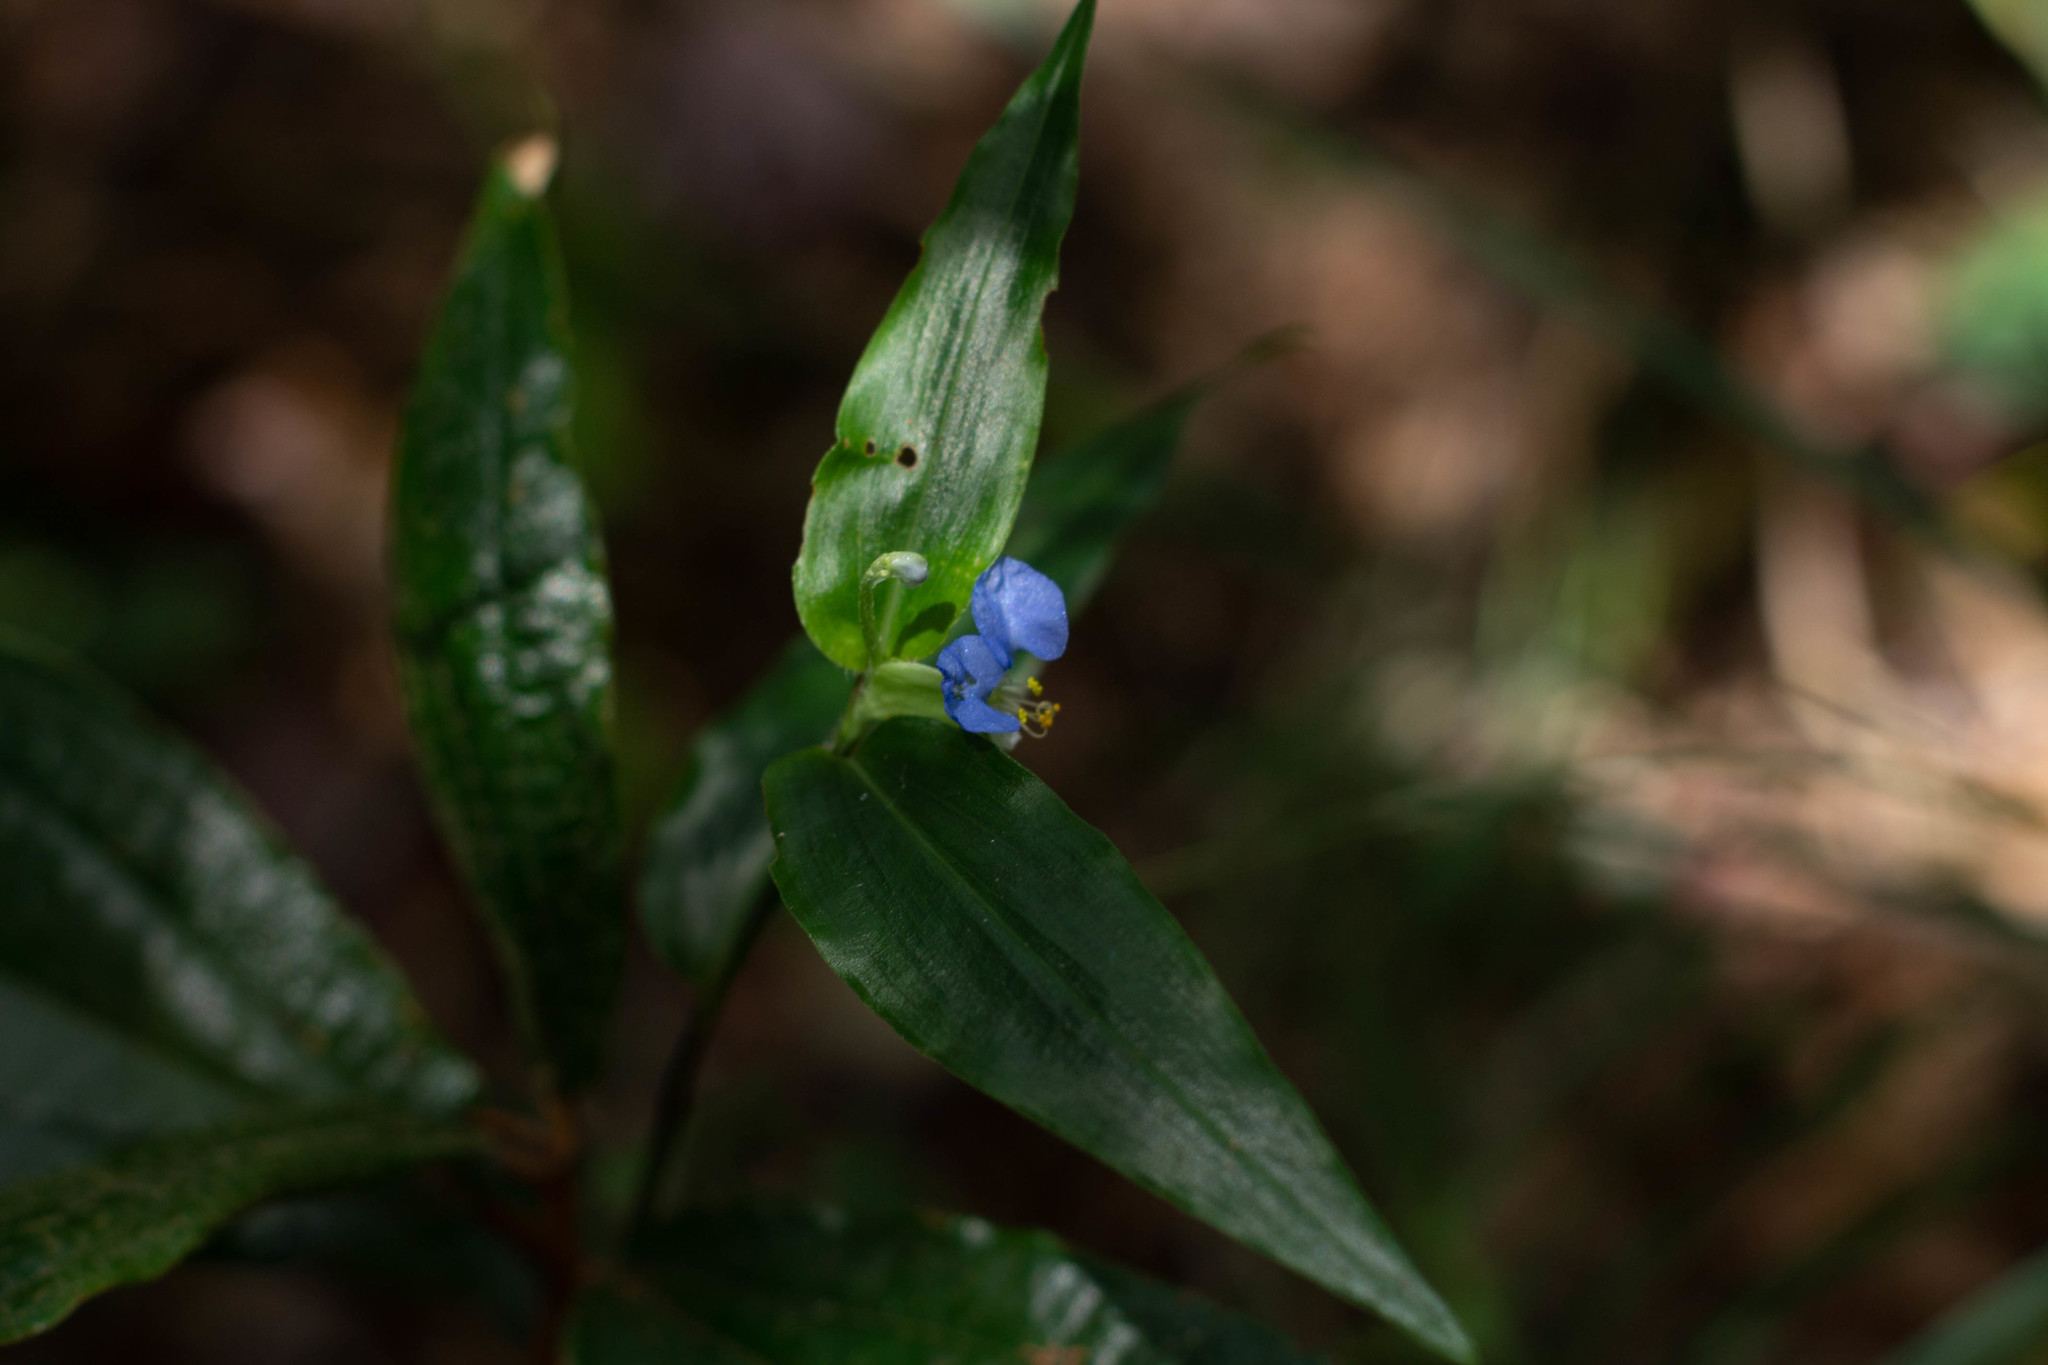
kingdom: Plantae
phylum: Tracheophyta
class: Liliopsida
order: Commelinales
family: Commelinaceae
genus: Commelina
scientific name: Commelina obliqua
